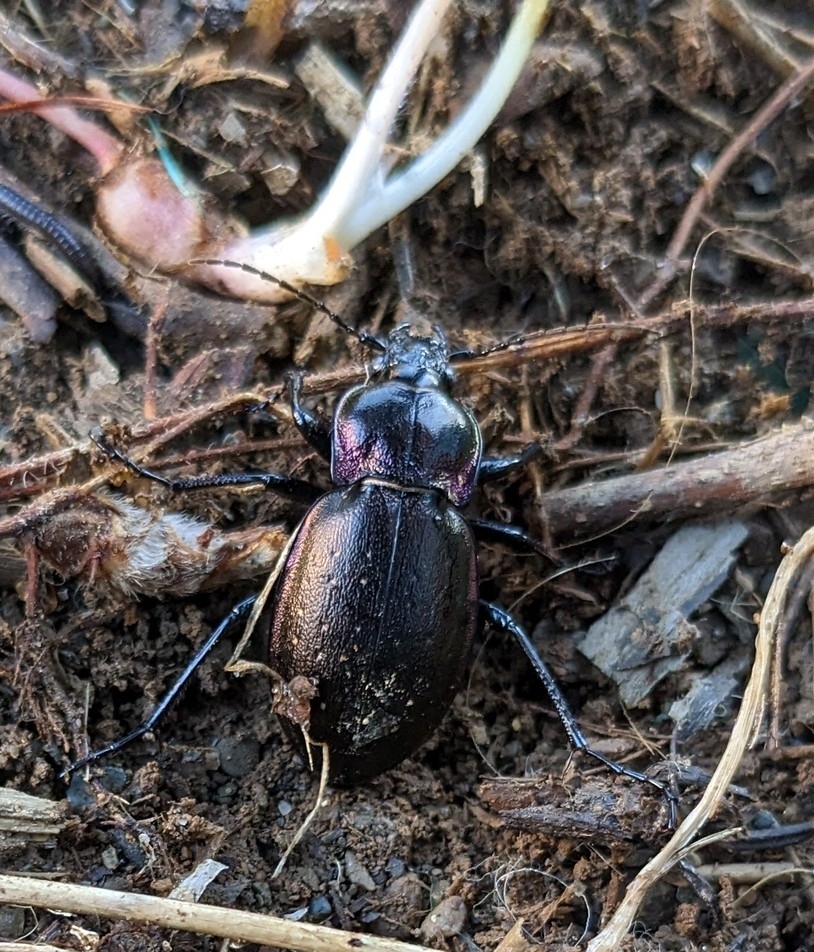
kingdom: Animalia
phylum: Arthropoda
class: Insecta
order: Coleoptera
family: Carabidae
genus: Carabus
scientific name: Carabus nemoralis
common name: European ground beetle
